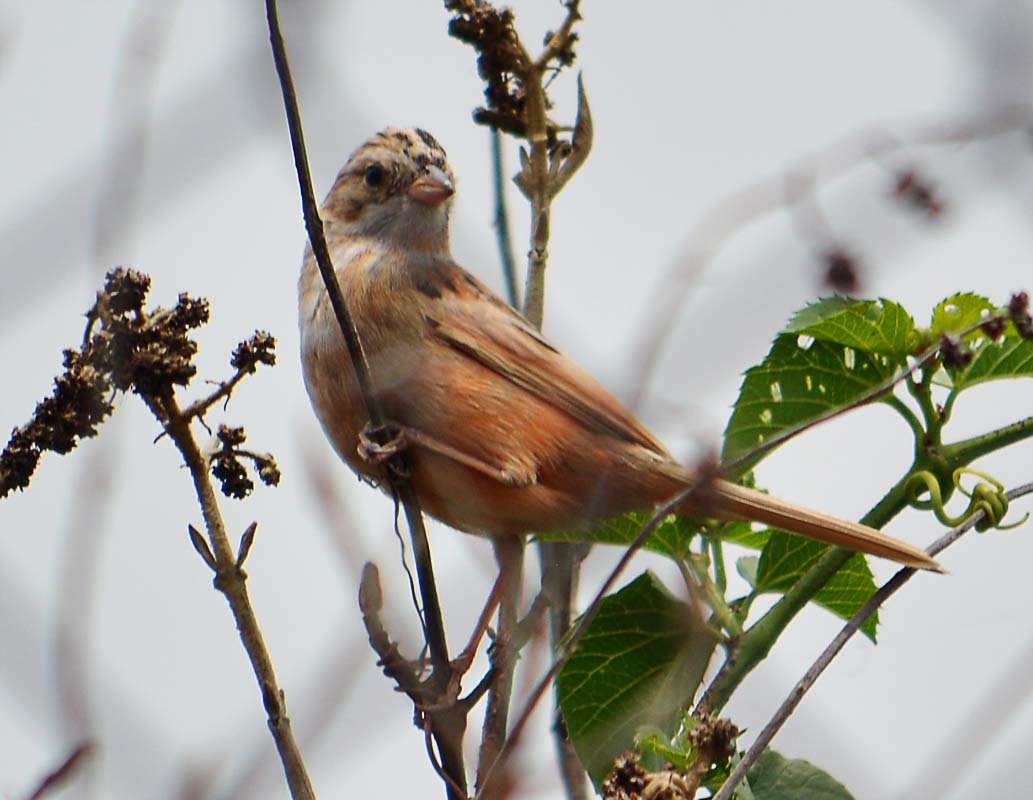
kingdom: Animalia
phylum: Chordata
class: Aves
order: Passeriformes
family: Passerellidae
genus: Spizella
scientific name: Spizella pallida
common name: Clay-colored sparrow
